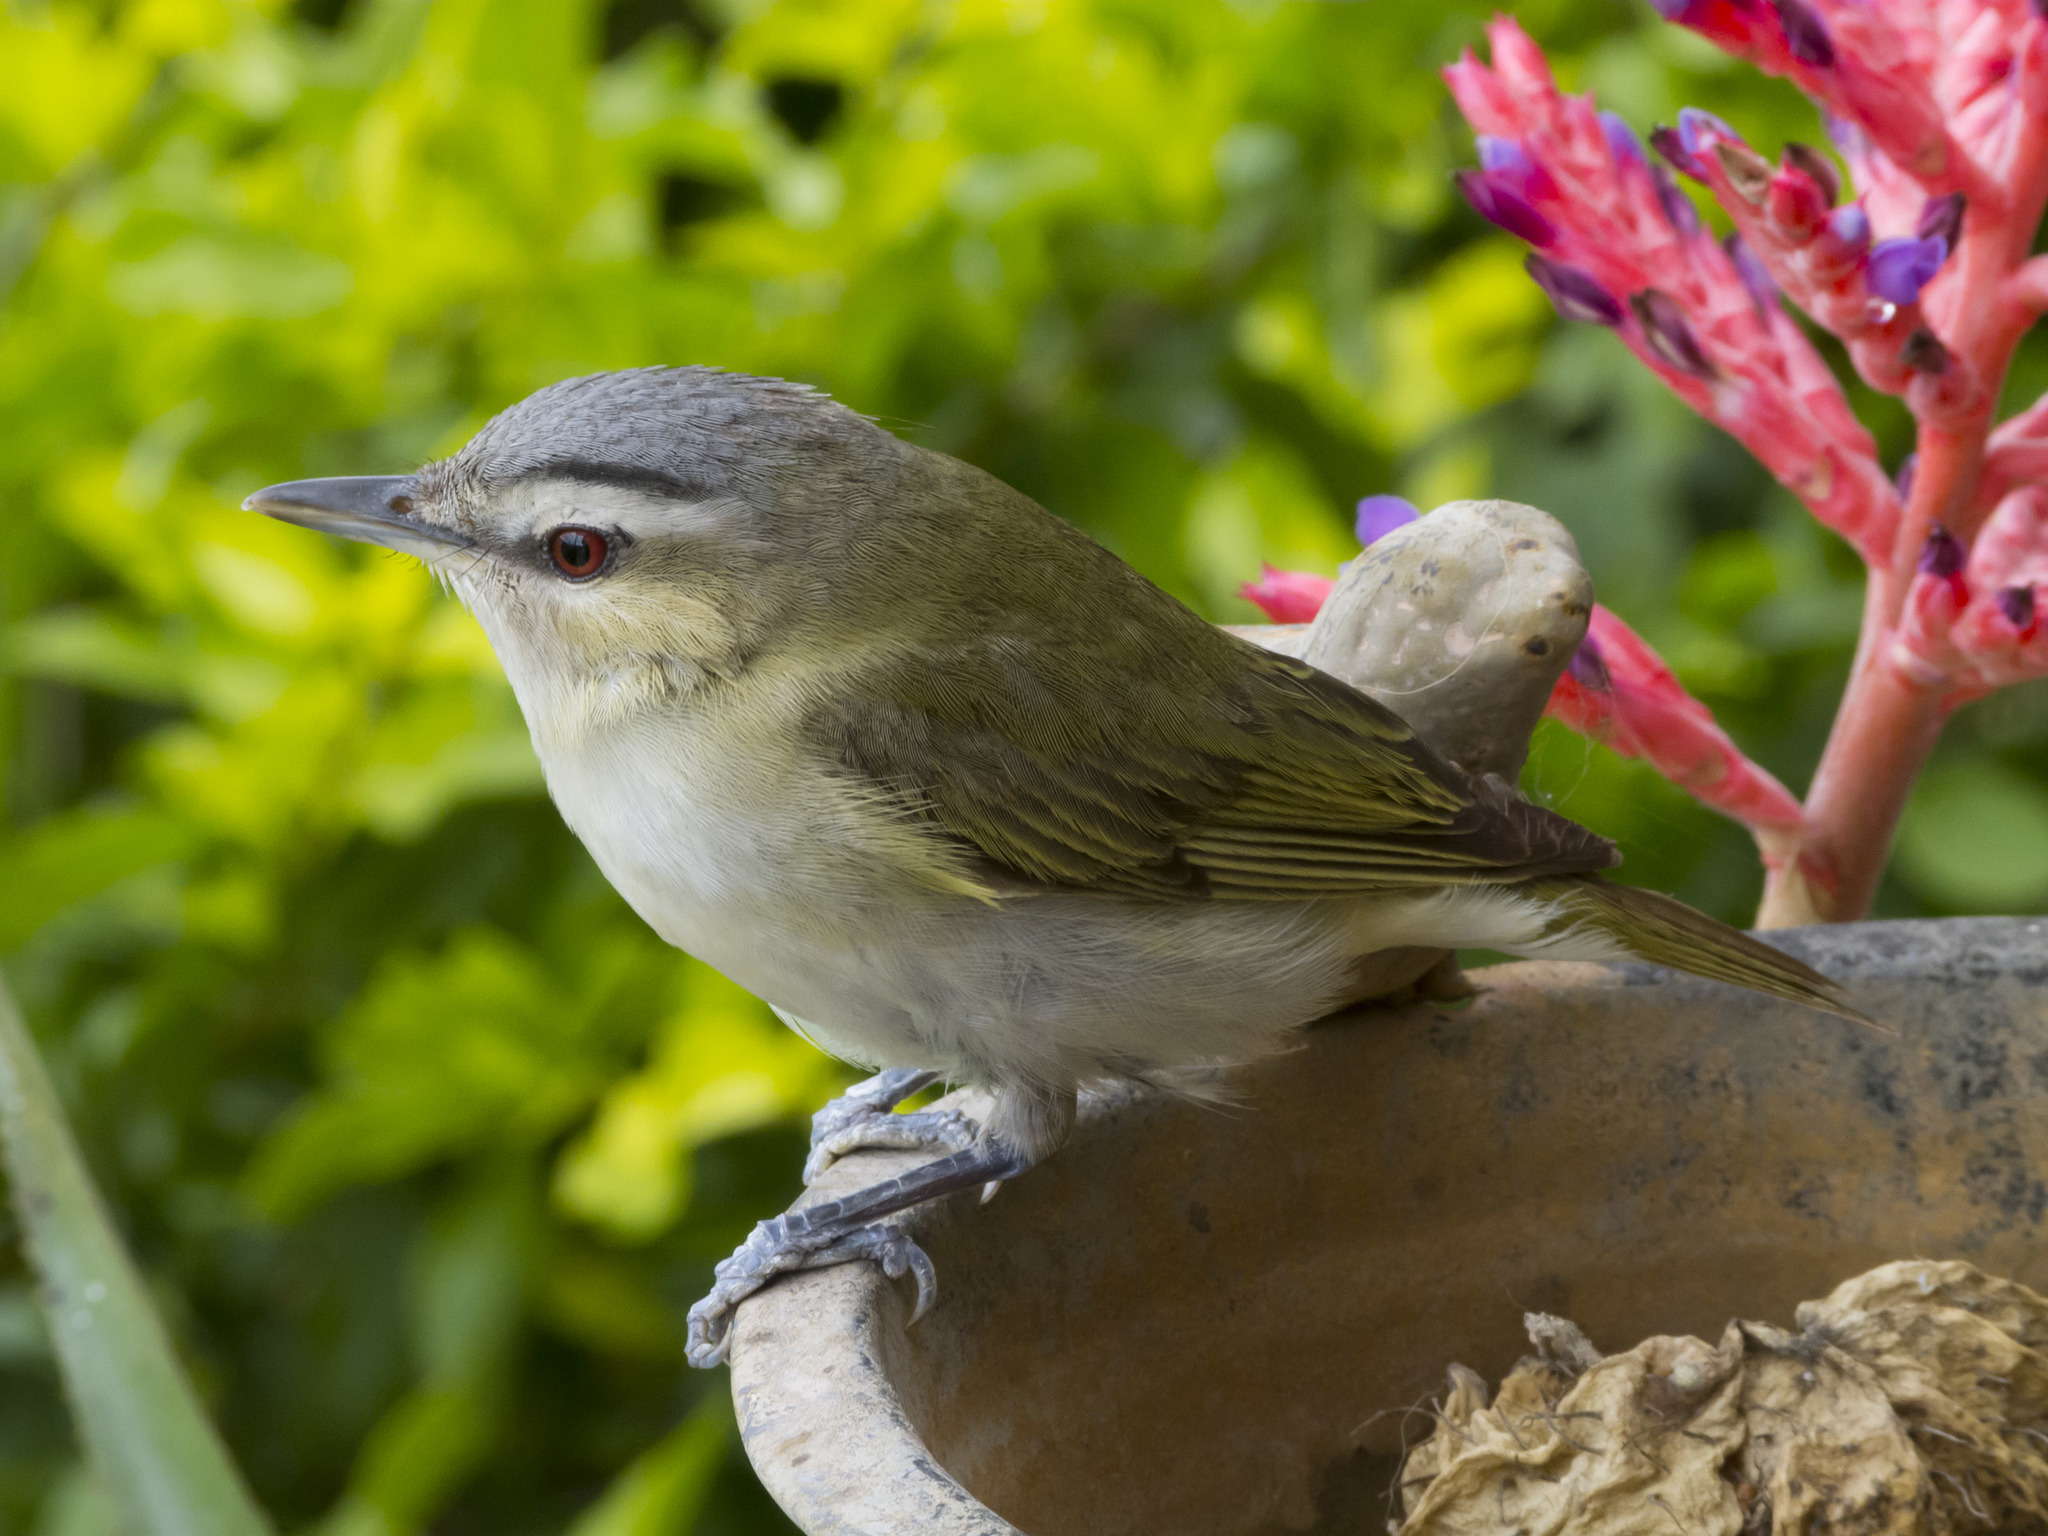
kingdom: Animalia
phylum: Chordata
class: Aves
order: Passeriformes
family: Vireonidae
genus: Vireo
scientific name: Vireo olivaceus
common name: Red-eyed vireo
